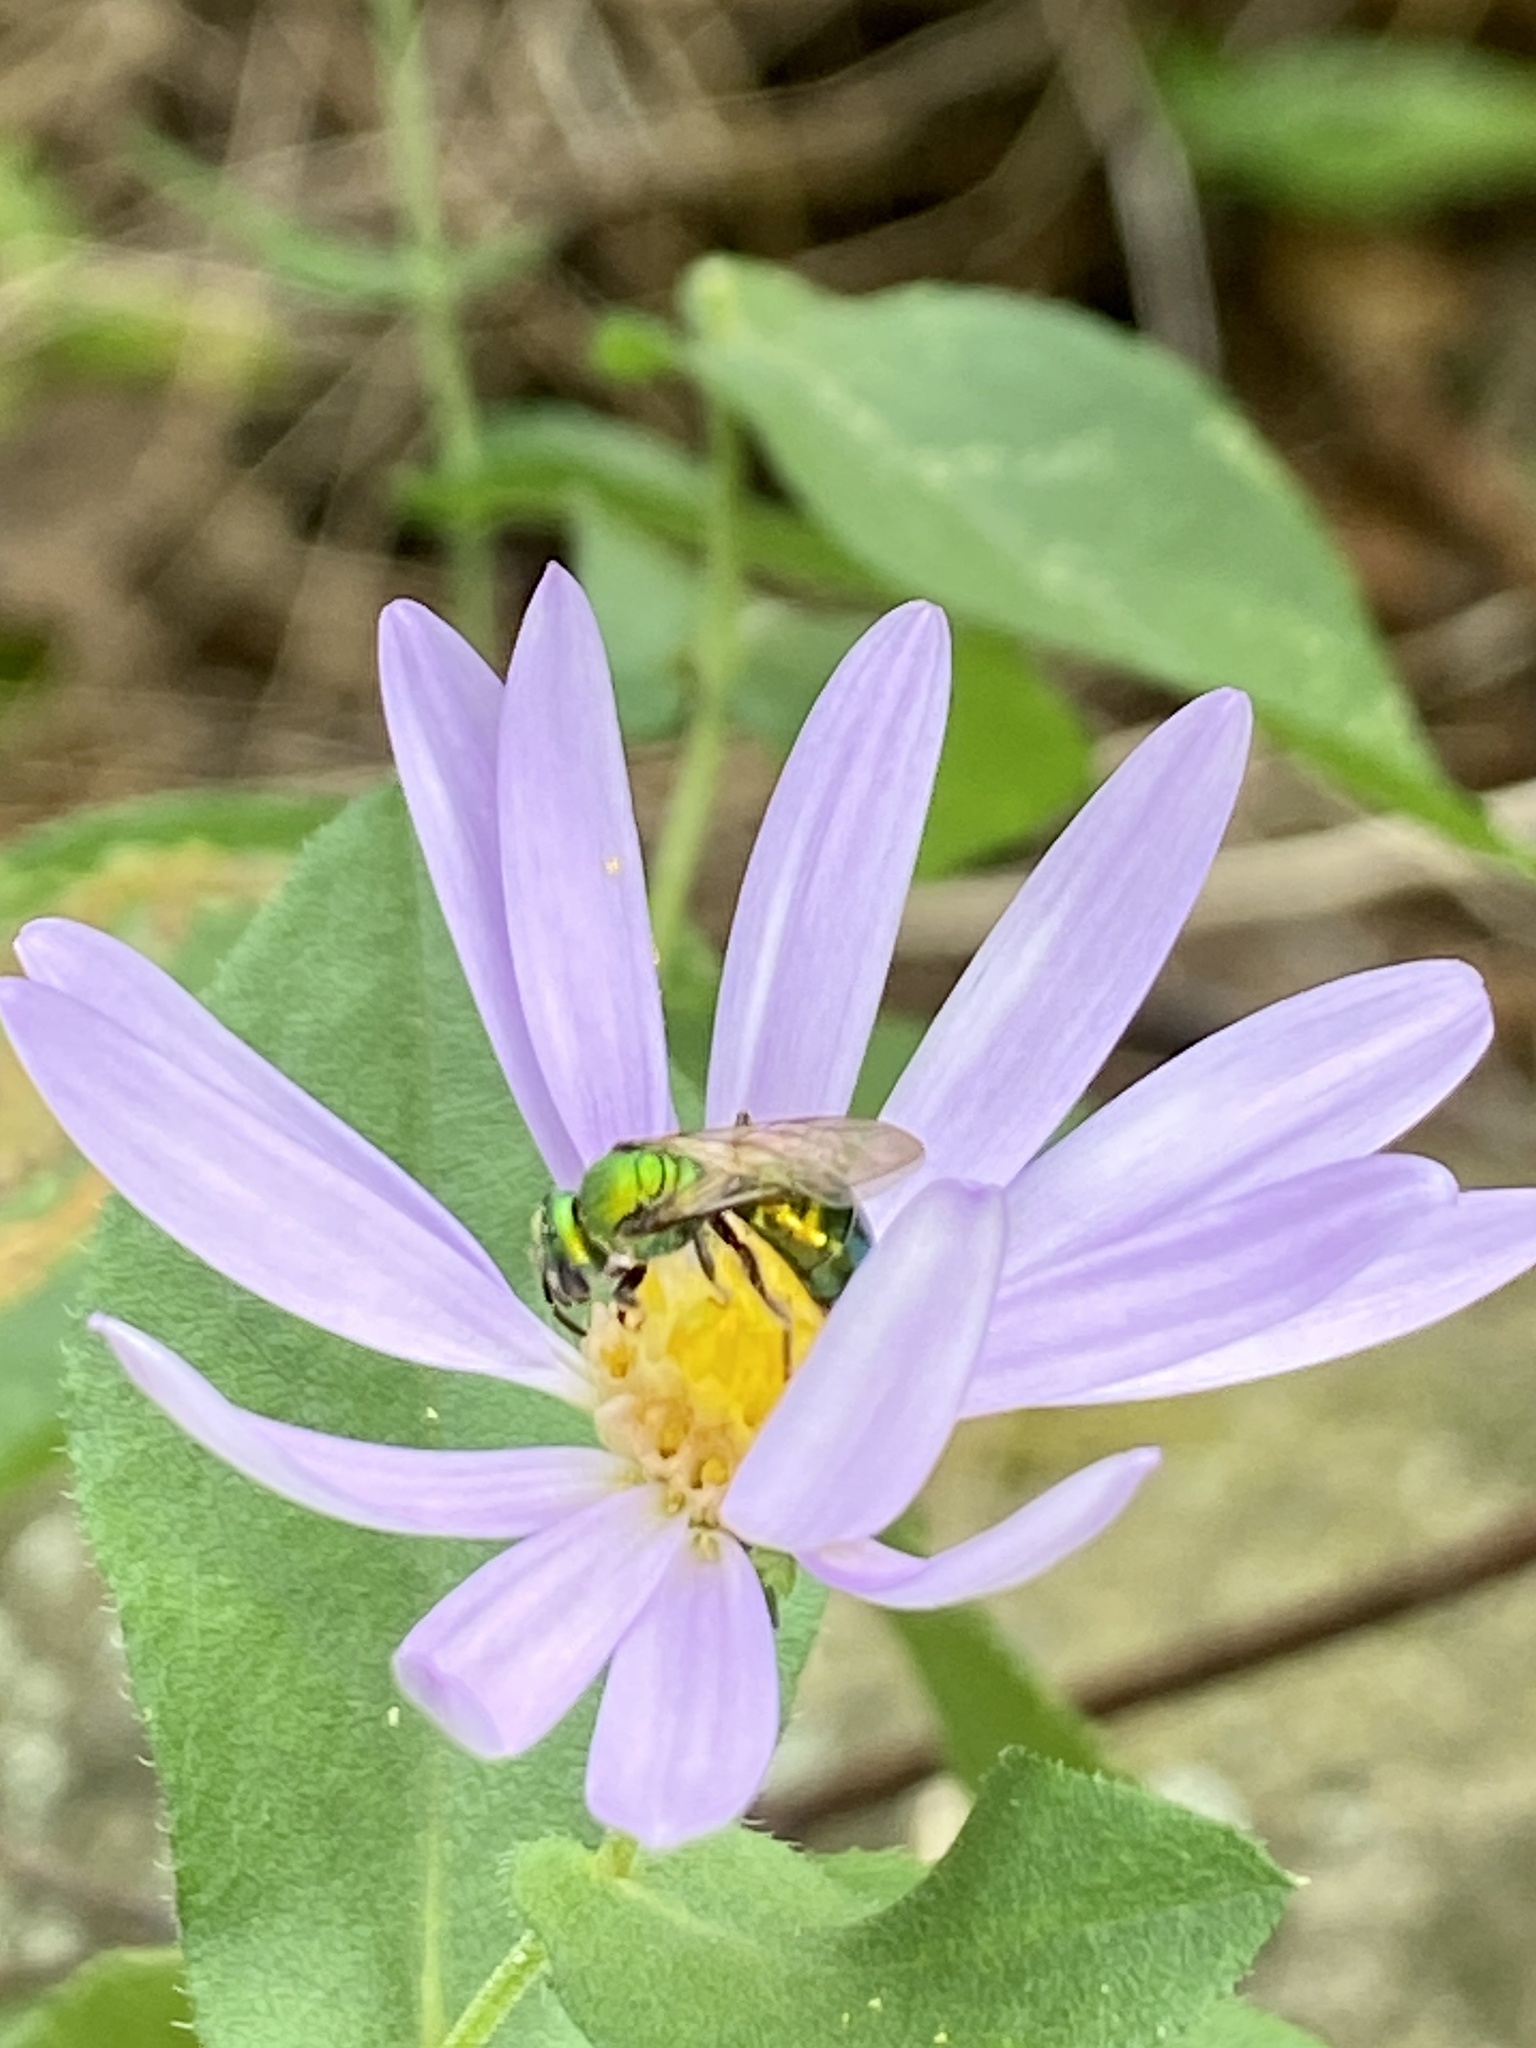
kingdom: Animalia
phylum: Arthropoda
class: Insecta
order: Hymenoptera
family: Halictidae
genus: Augochlora
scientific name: Augochlora pura
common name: Pure green sweat bee
